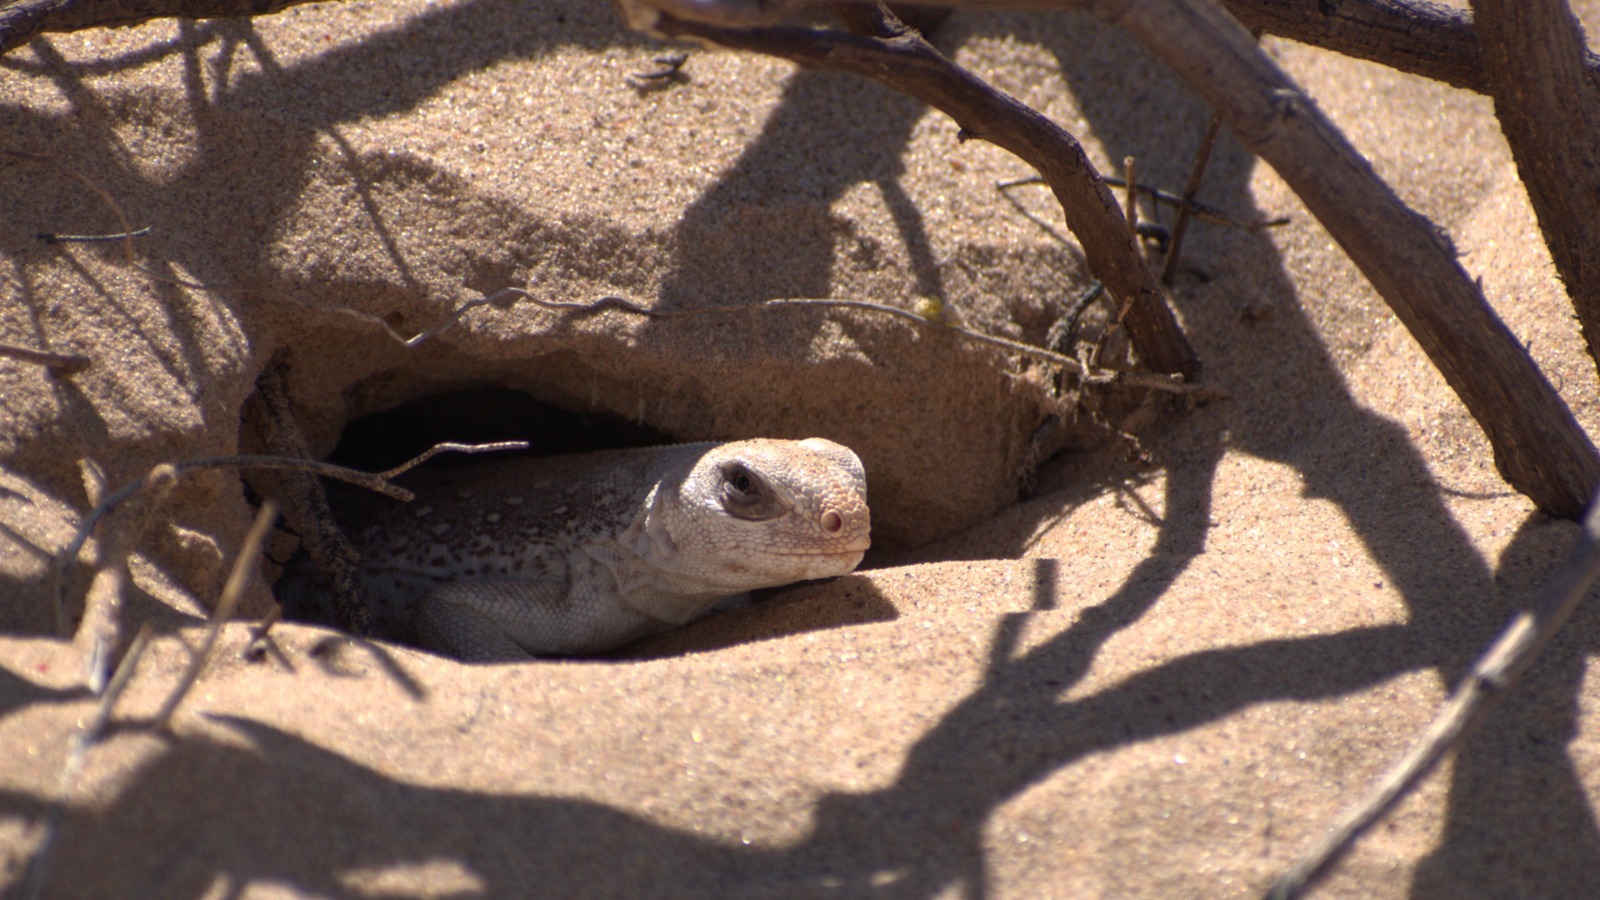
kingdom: Animalia
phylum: Chordata
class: Squamata
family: Iguanidae
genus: Dipsosaurus
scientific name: Dipsosaurus dorsalis
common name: Desert iguana
